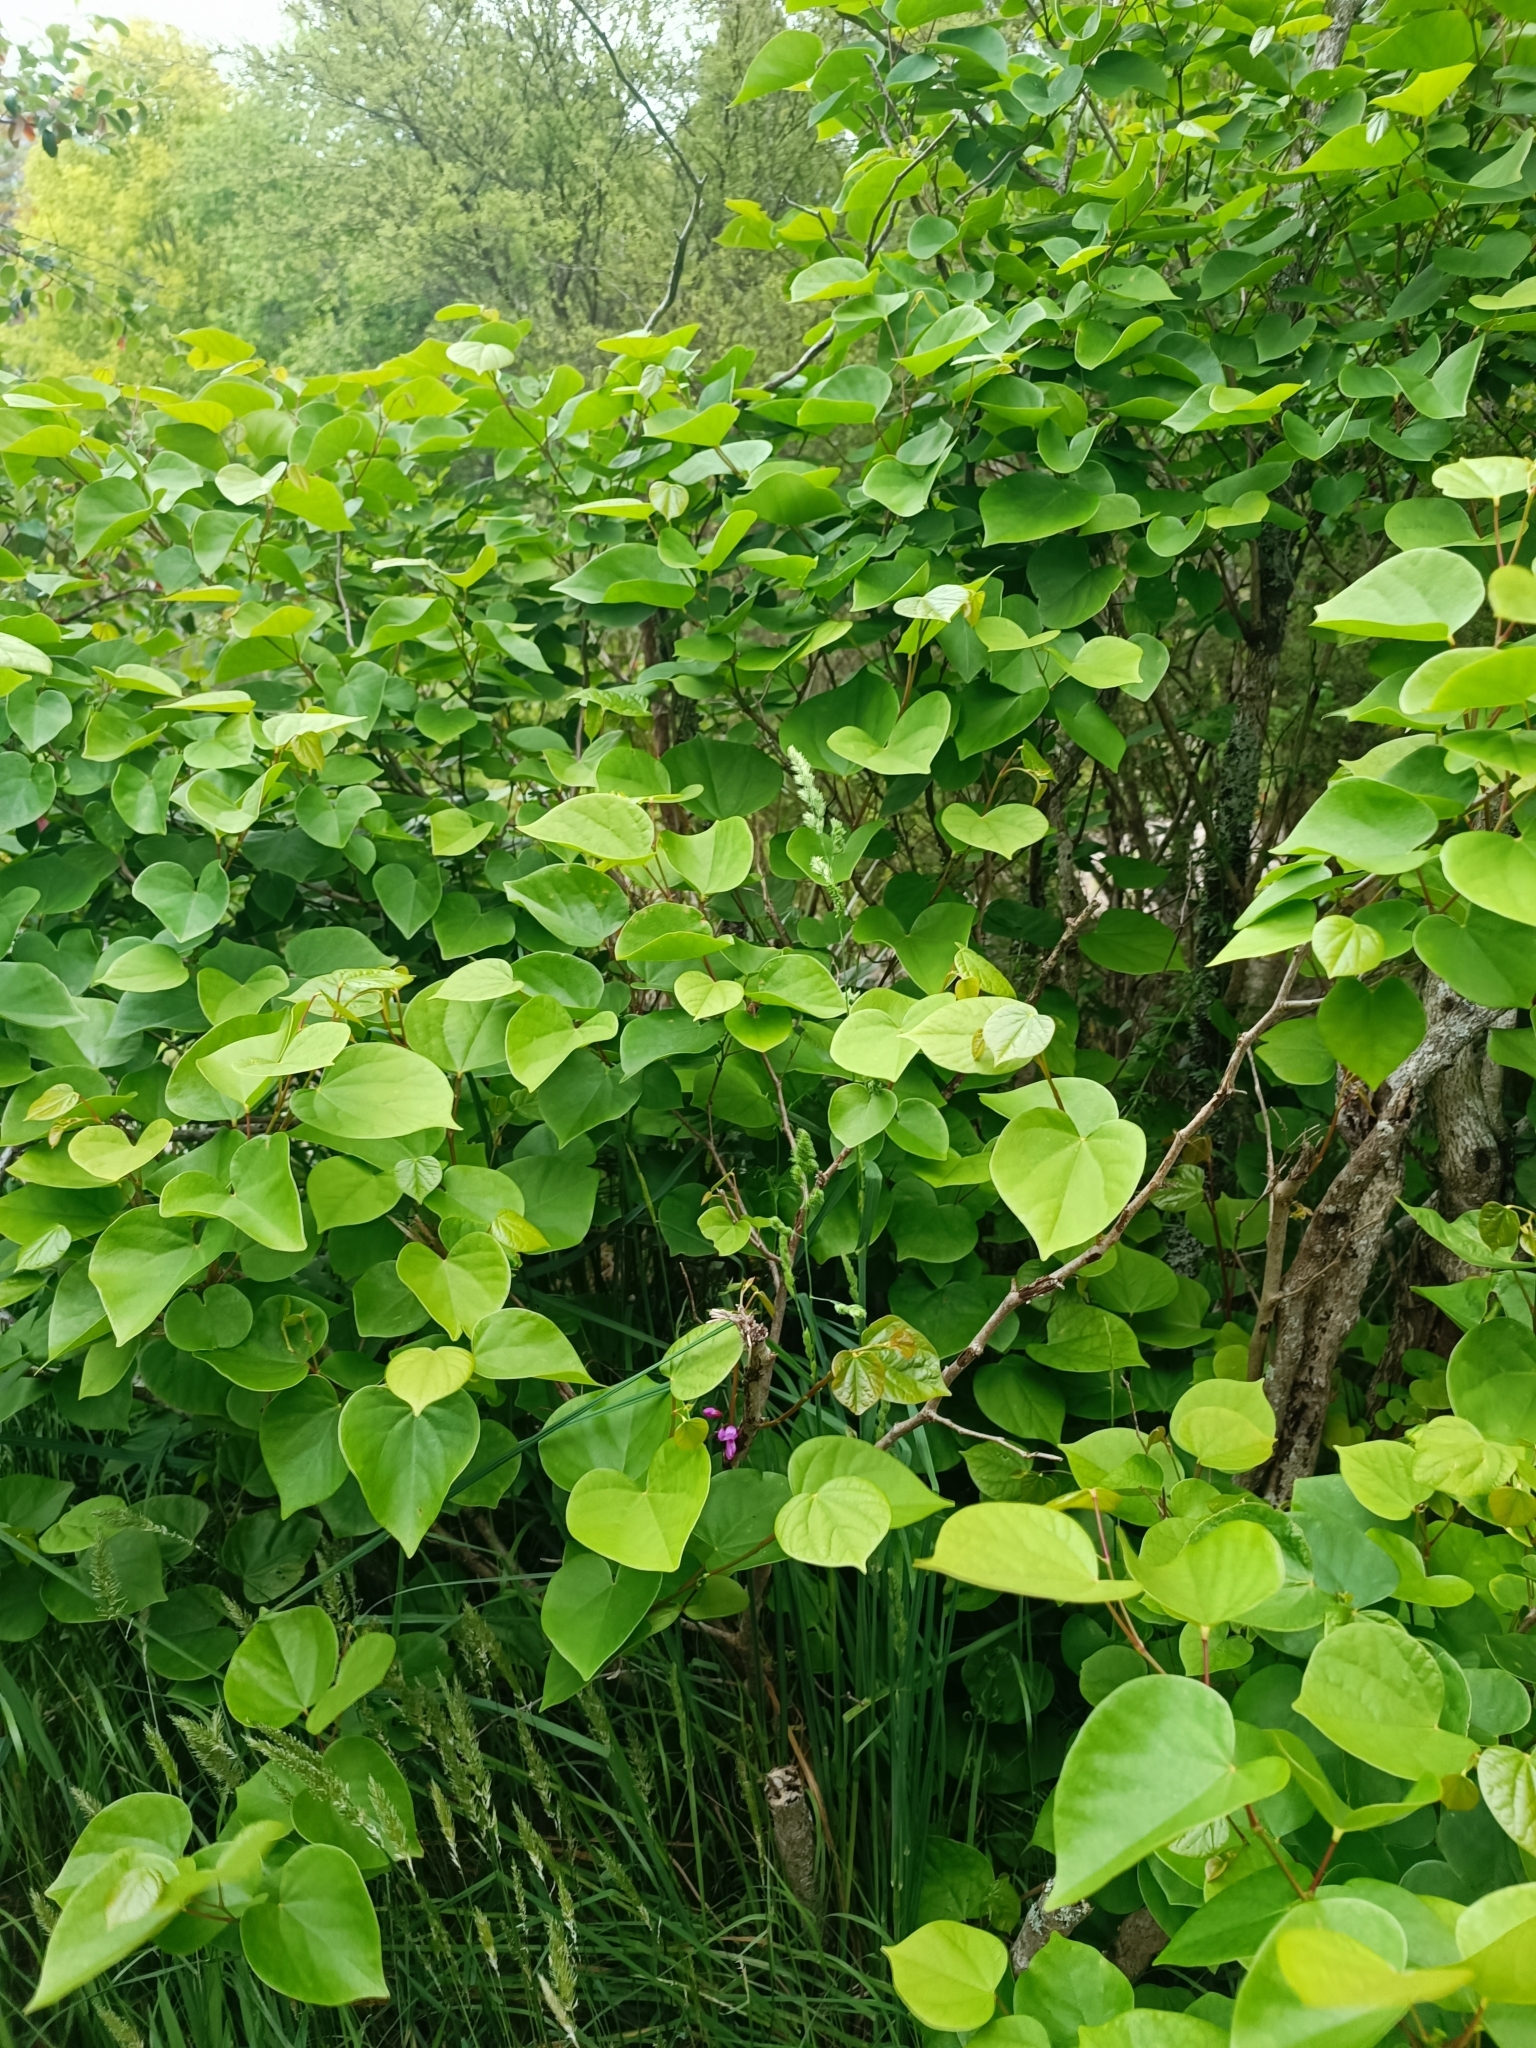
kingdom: Plantae
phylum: Tracheophyta
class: Magnoliopsida
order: Fabales
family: Fabaceae
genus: Cercis
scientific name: Cercis siliquastrum
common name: Judas tree
